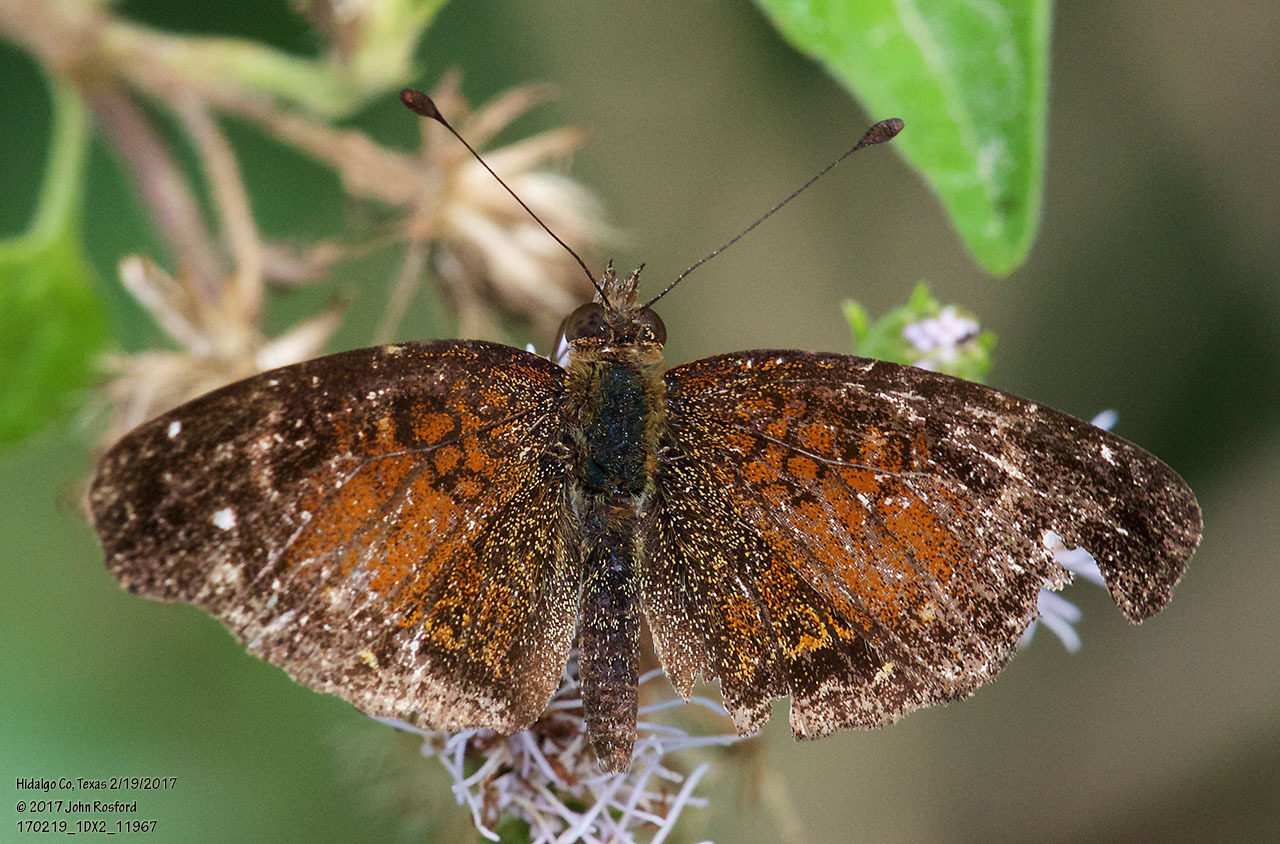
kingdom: Animalia
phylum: Arthropoda
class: Insecta
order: Lepidoptera
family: Nymphalidae
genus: Anthanassa
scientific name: Anthanassa argentea
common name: Chestnut crescent
